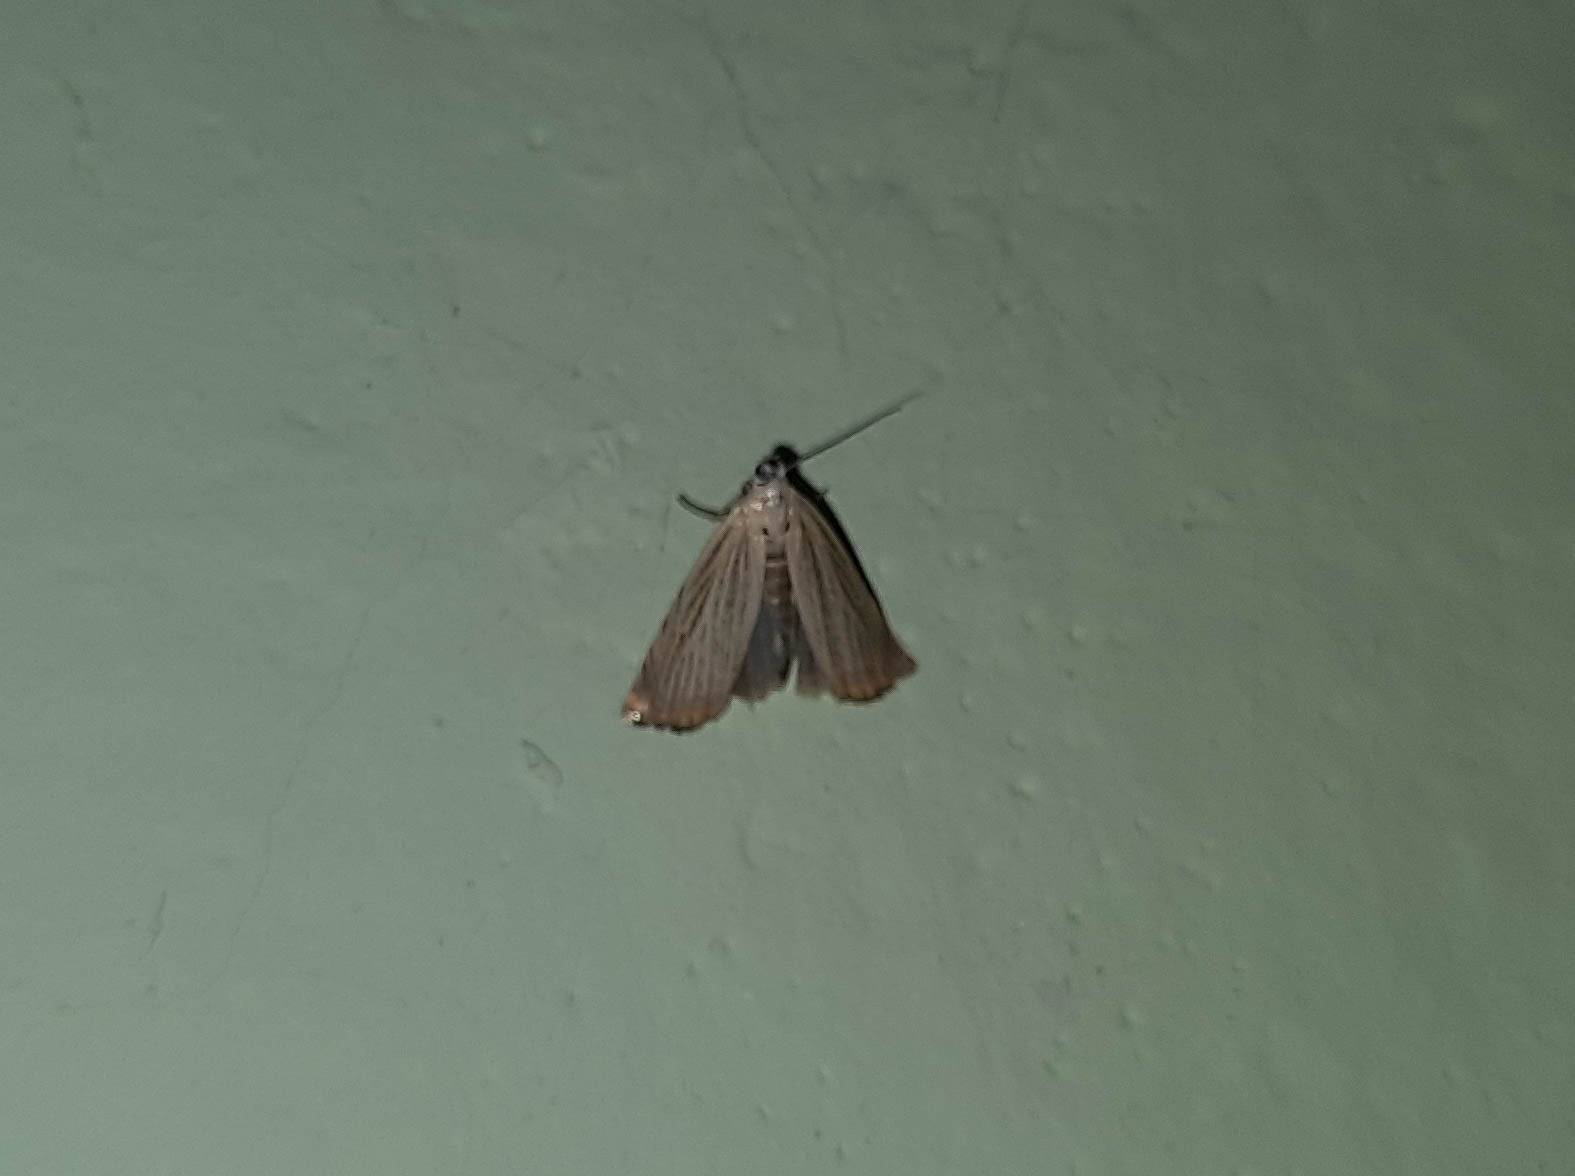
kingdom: Animalia
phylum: Arthropoda
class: Insecta
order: Lepidoptera
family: Crambidae
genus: Chrysoteuchia
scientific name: Chrysoteuchia culmella
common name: Garden grass-veneer
